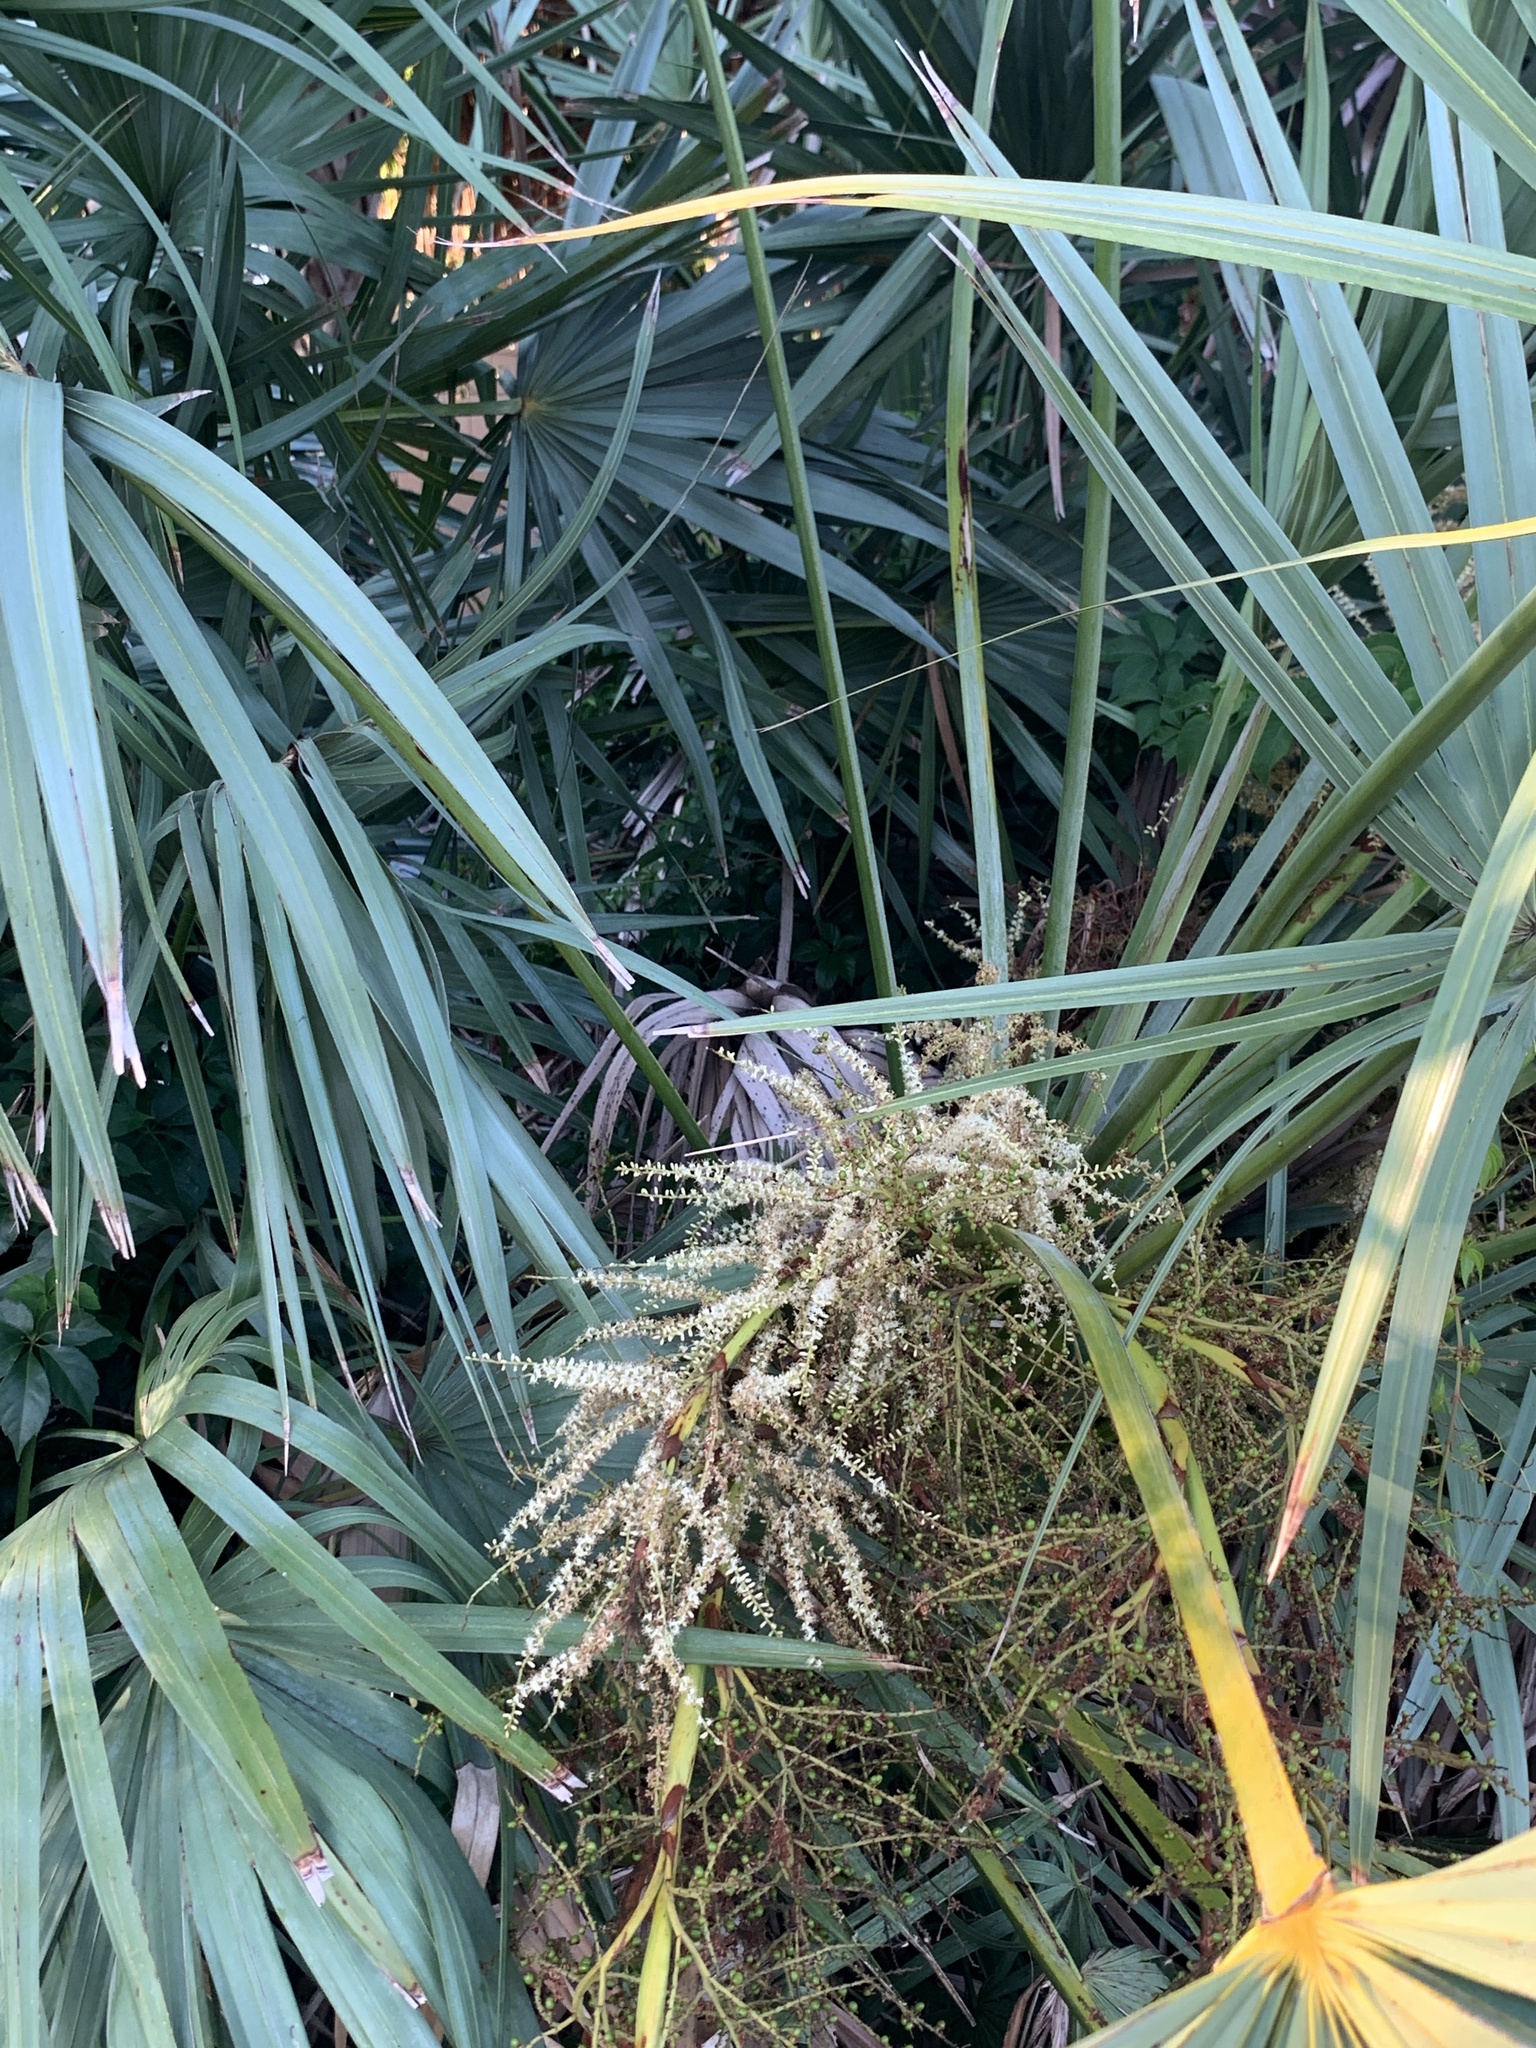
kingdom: Plantae
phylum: Tracheophyta
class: Liliopsida
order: Arecales
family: Arecaceae
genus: Serenoa
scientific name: Serenoa repens
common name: Saw-palmetto
